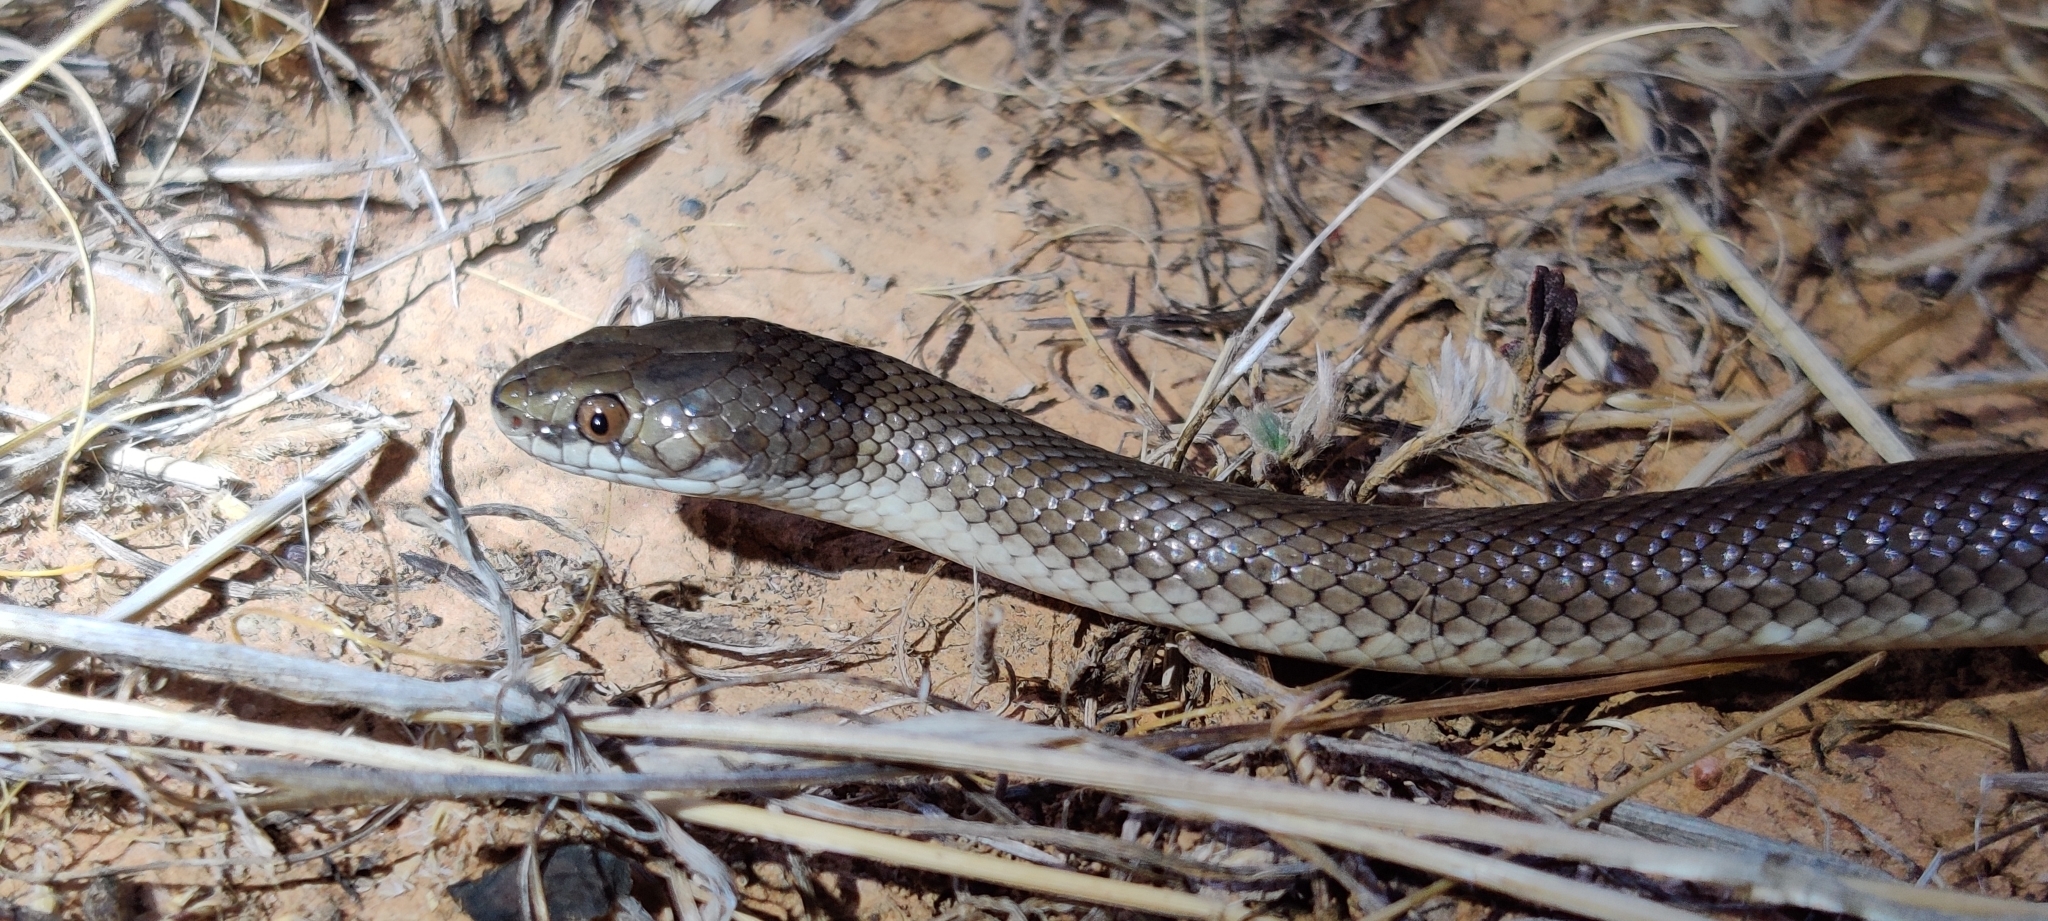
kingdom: Animalia
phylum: Chordata
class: Squamata
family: Elapidae
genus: Suta
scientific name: Suta suta
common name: Curl snake
